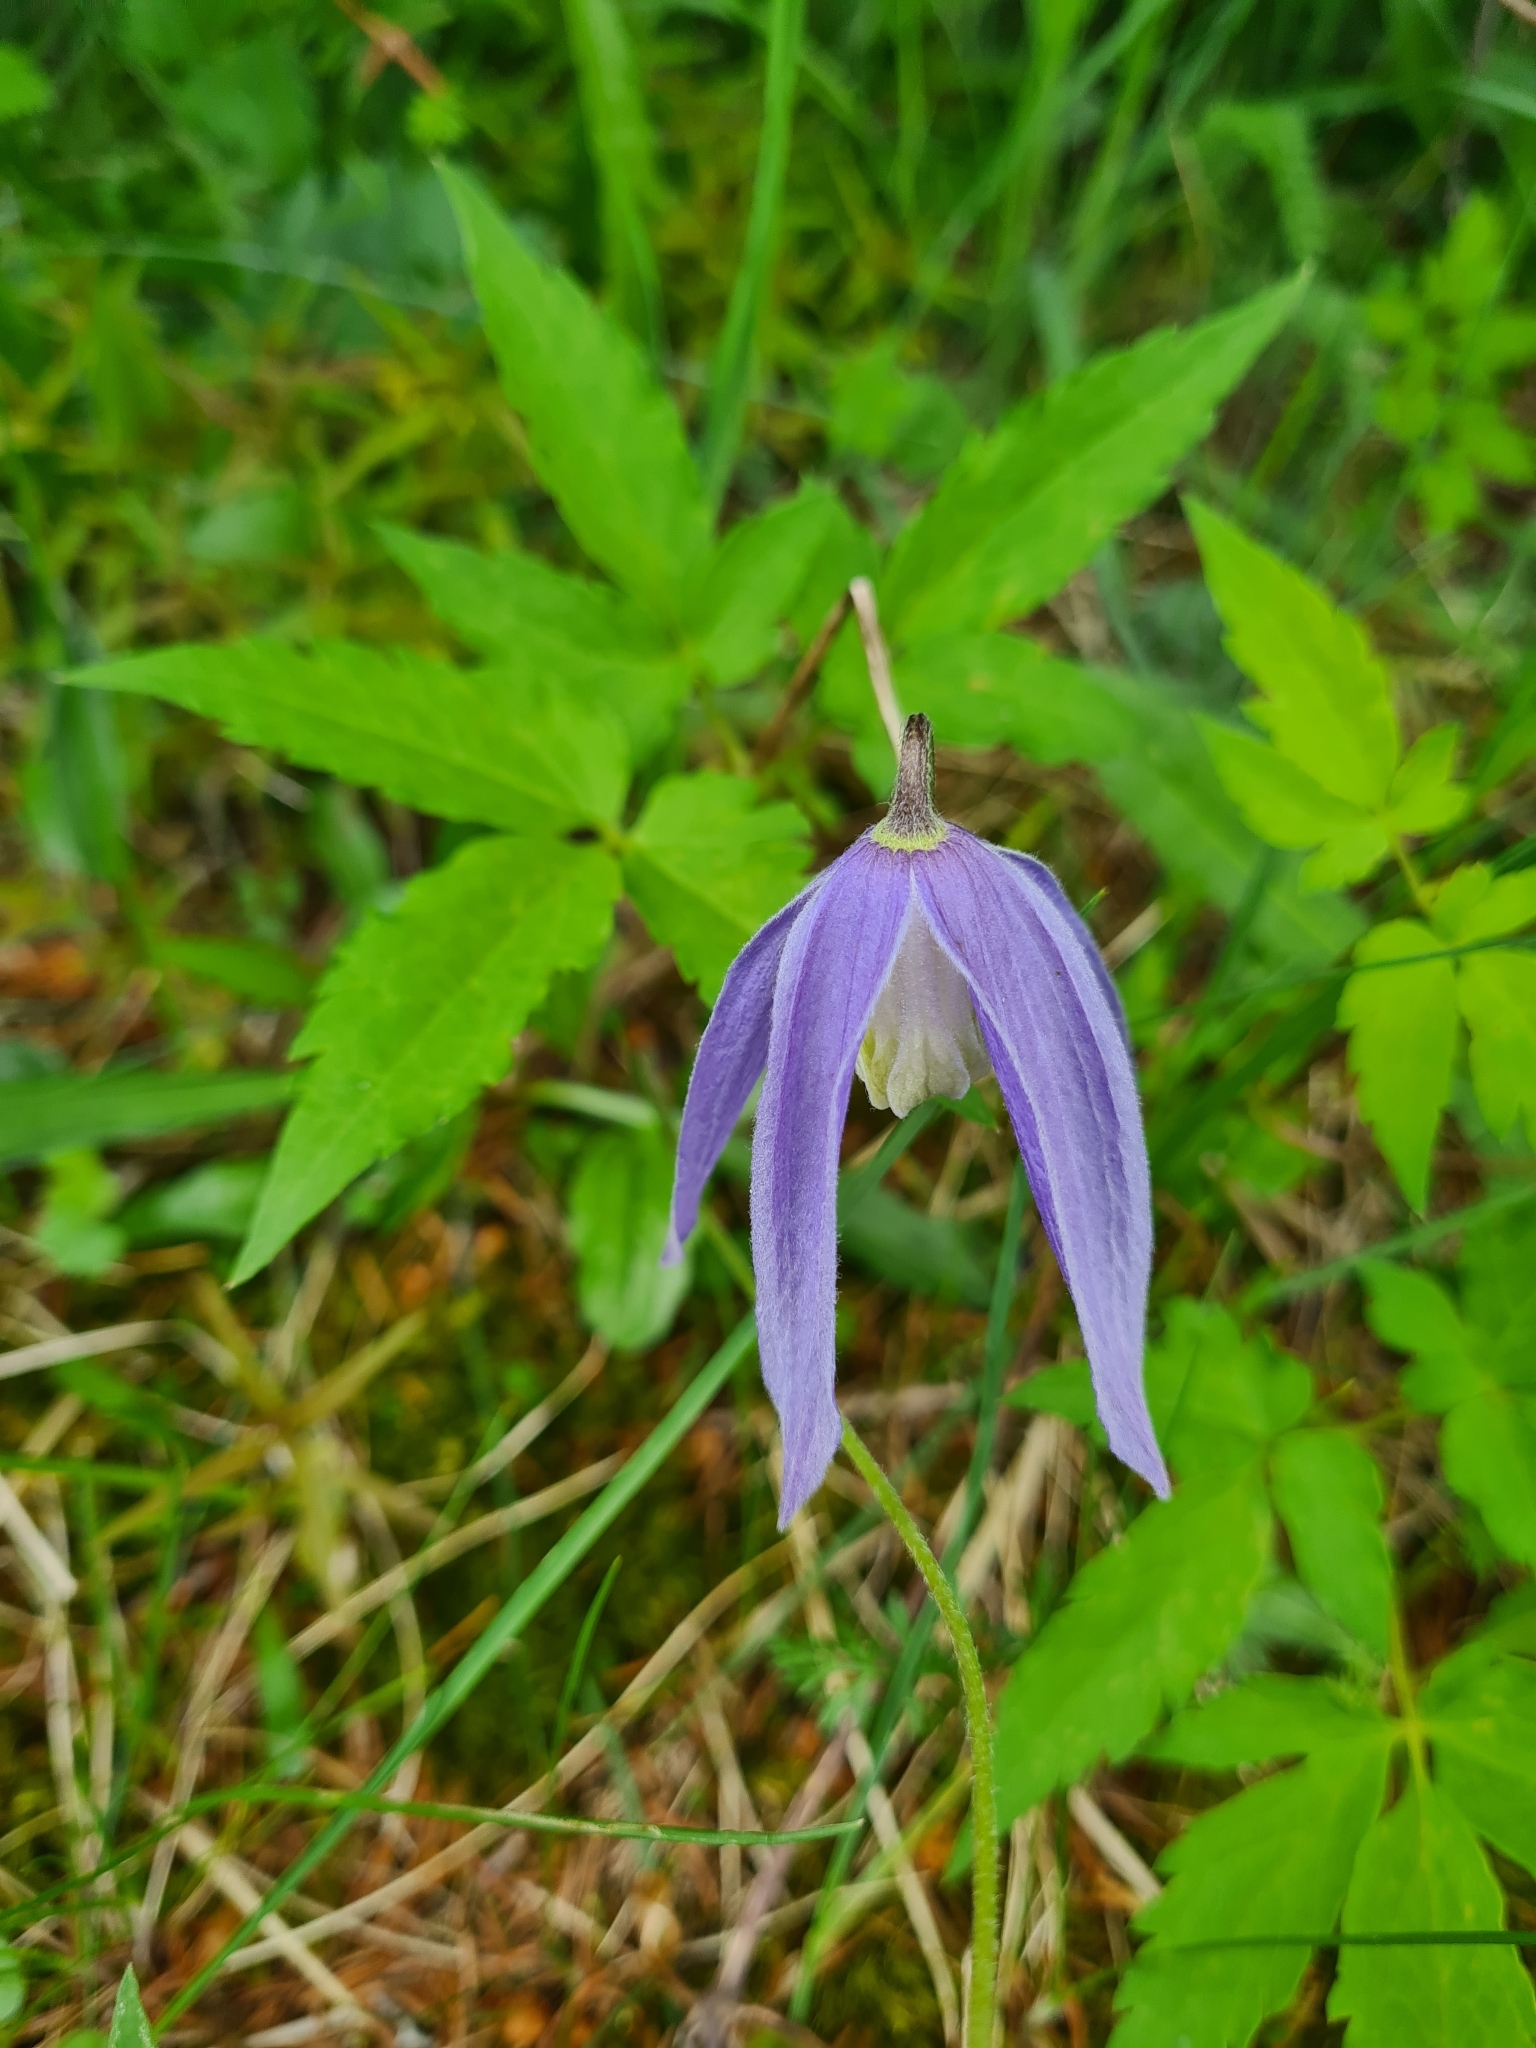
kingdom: Plantae
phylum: Tracheophyta
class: Magnoliopsida
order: Ranunculales
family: Ranunculaceae
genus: Clematis
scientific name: Clematis alpina
